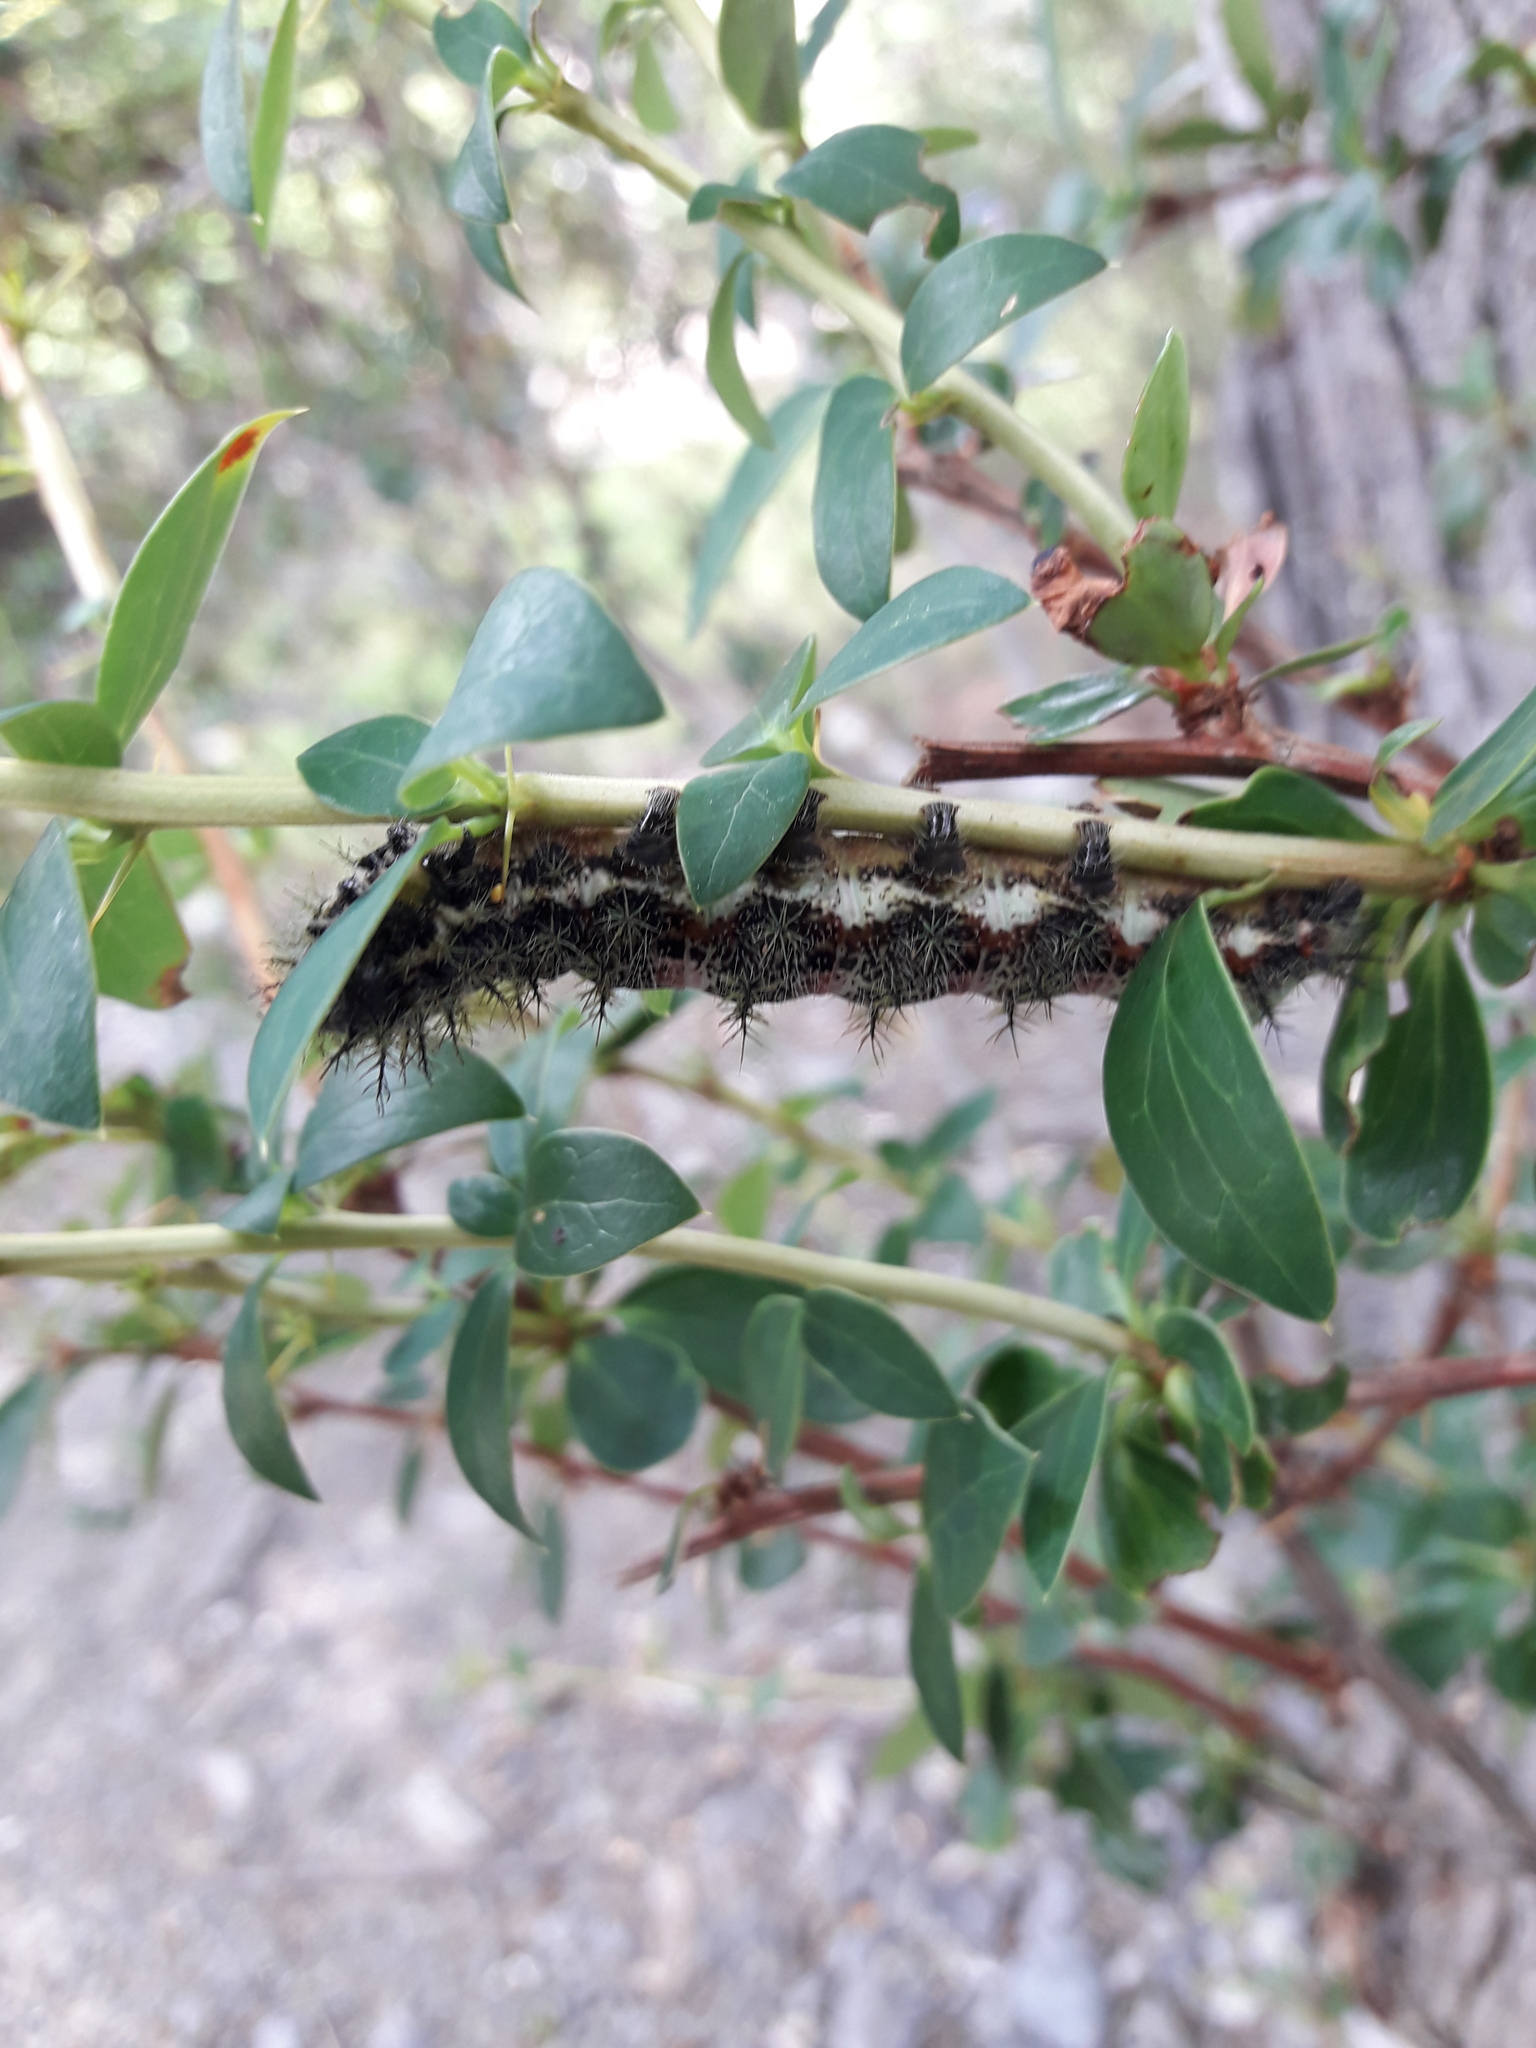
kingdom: Animalia
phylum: Arthropoda
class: Insecta
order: Lepidoptera
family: Saturniidae
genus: Ormiscodes
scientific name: Ormiscodes amphinome
